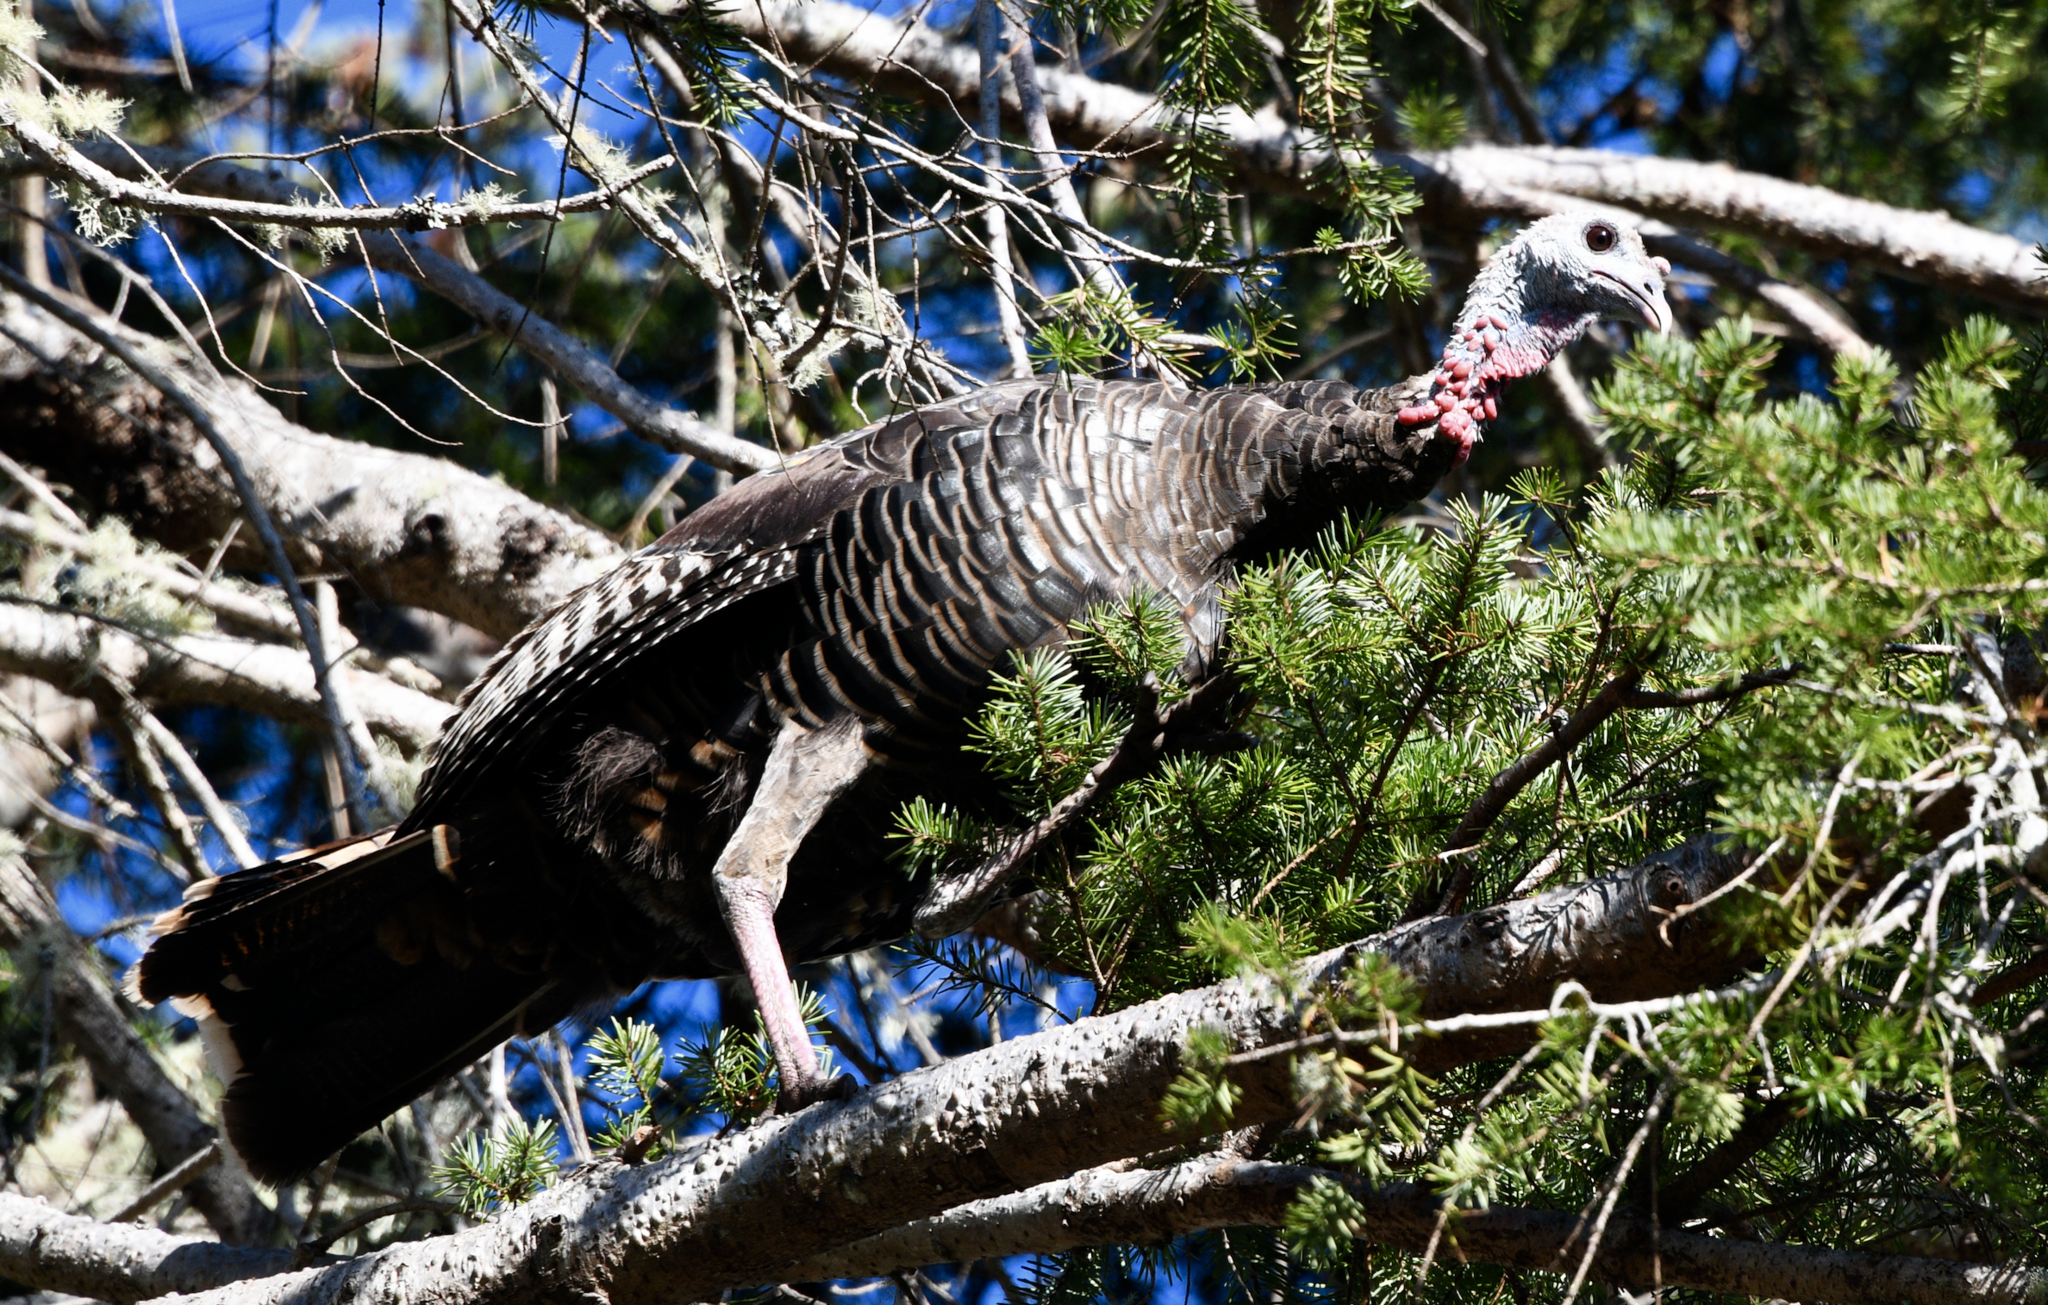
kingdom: Animalia
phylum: Chordata
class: Aves
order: Galliformes
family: Phasianidae
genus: Meleagris
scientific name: Meleagris gallopavo
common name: Wild turkey
